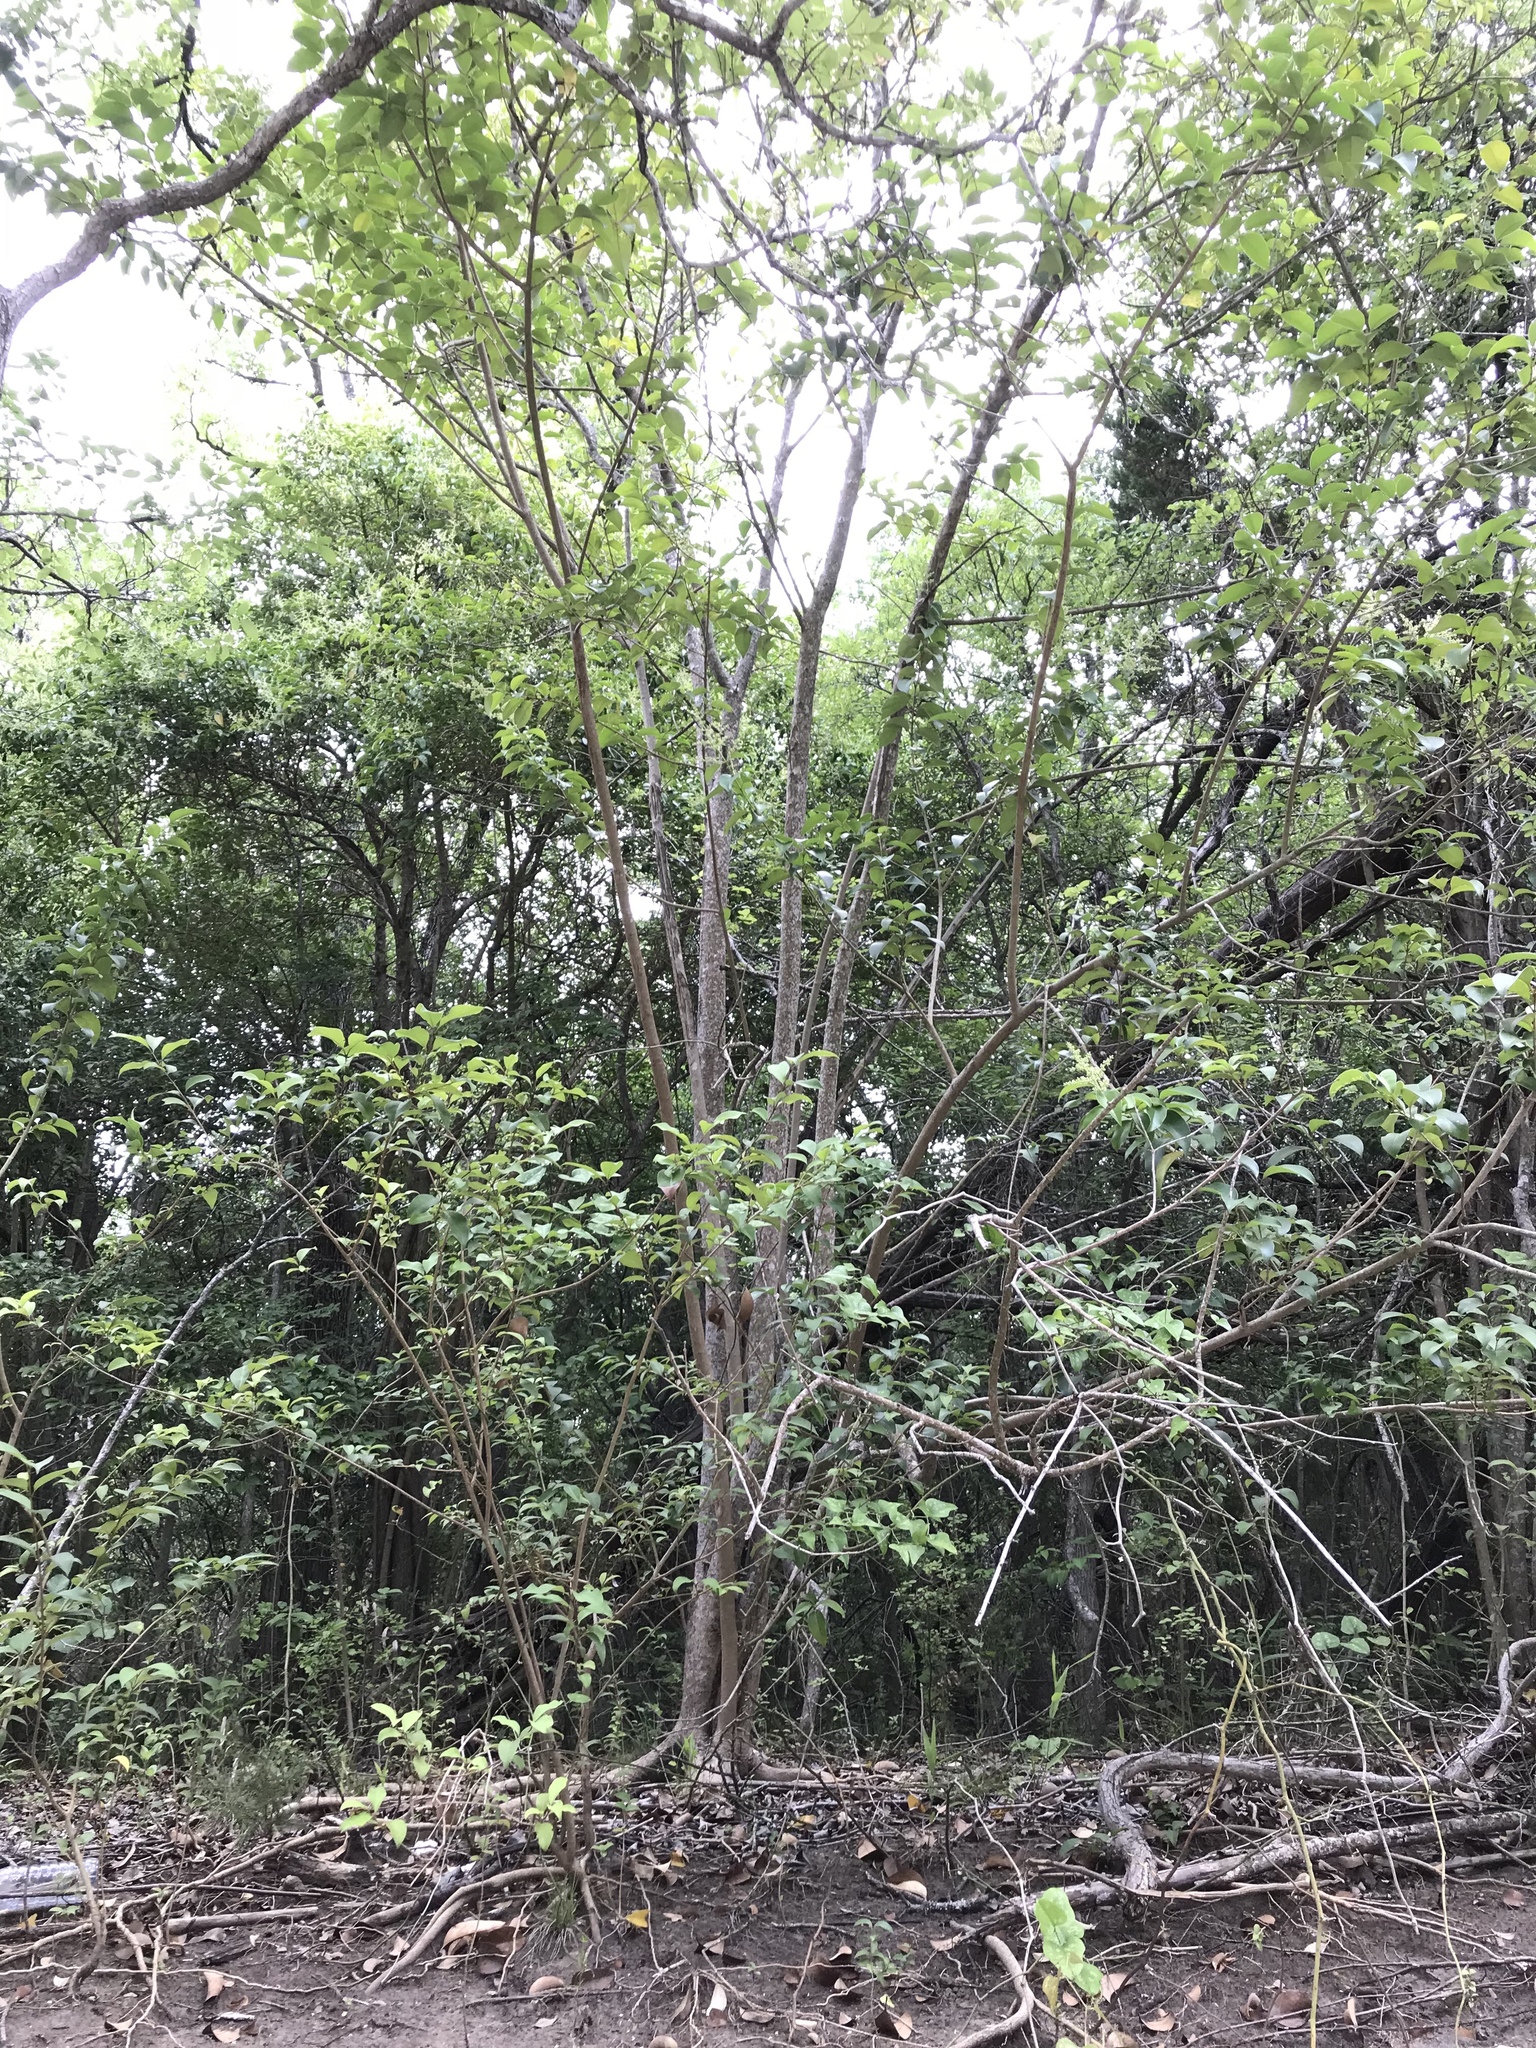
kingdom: Plantae
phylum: Tracheophyta
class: Magnoliopsida
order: Lamiales
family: Oleaceae
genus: Ligustrum
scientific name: Ligustrum lucidum
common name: Glossy privet
